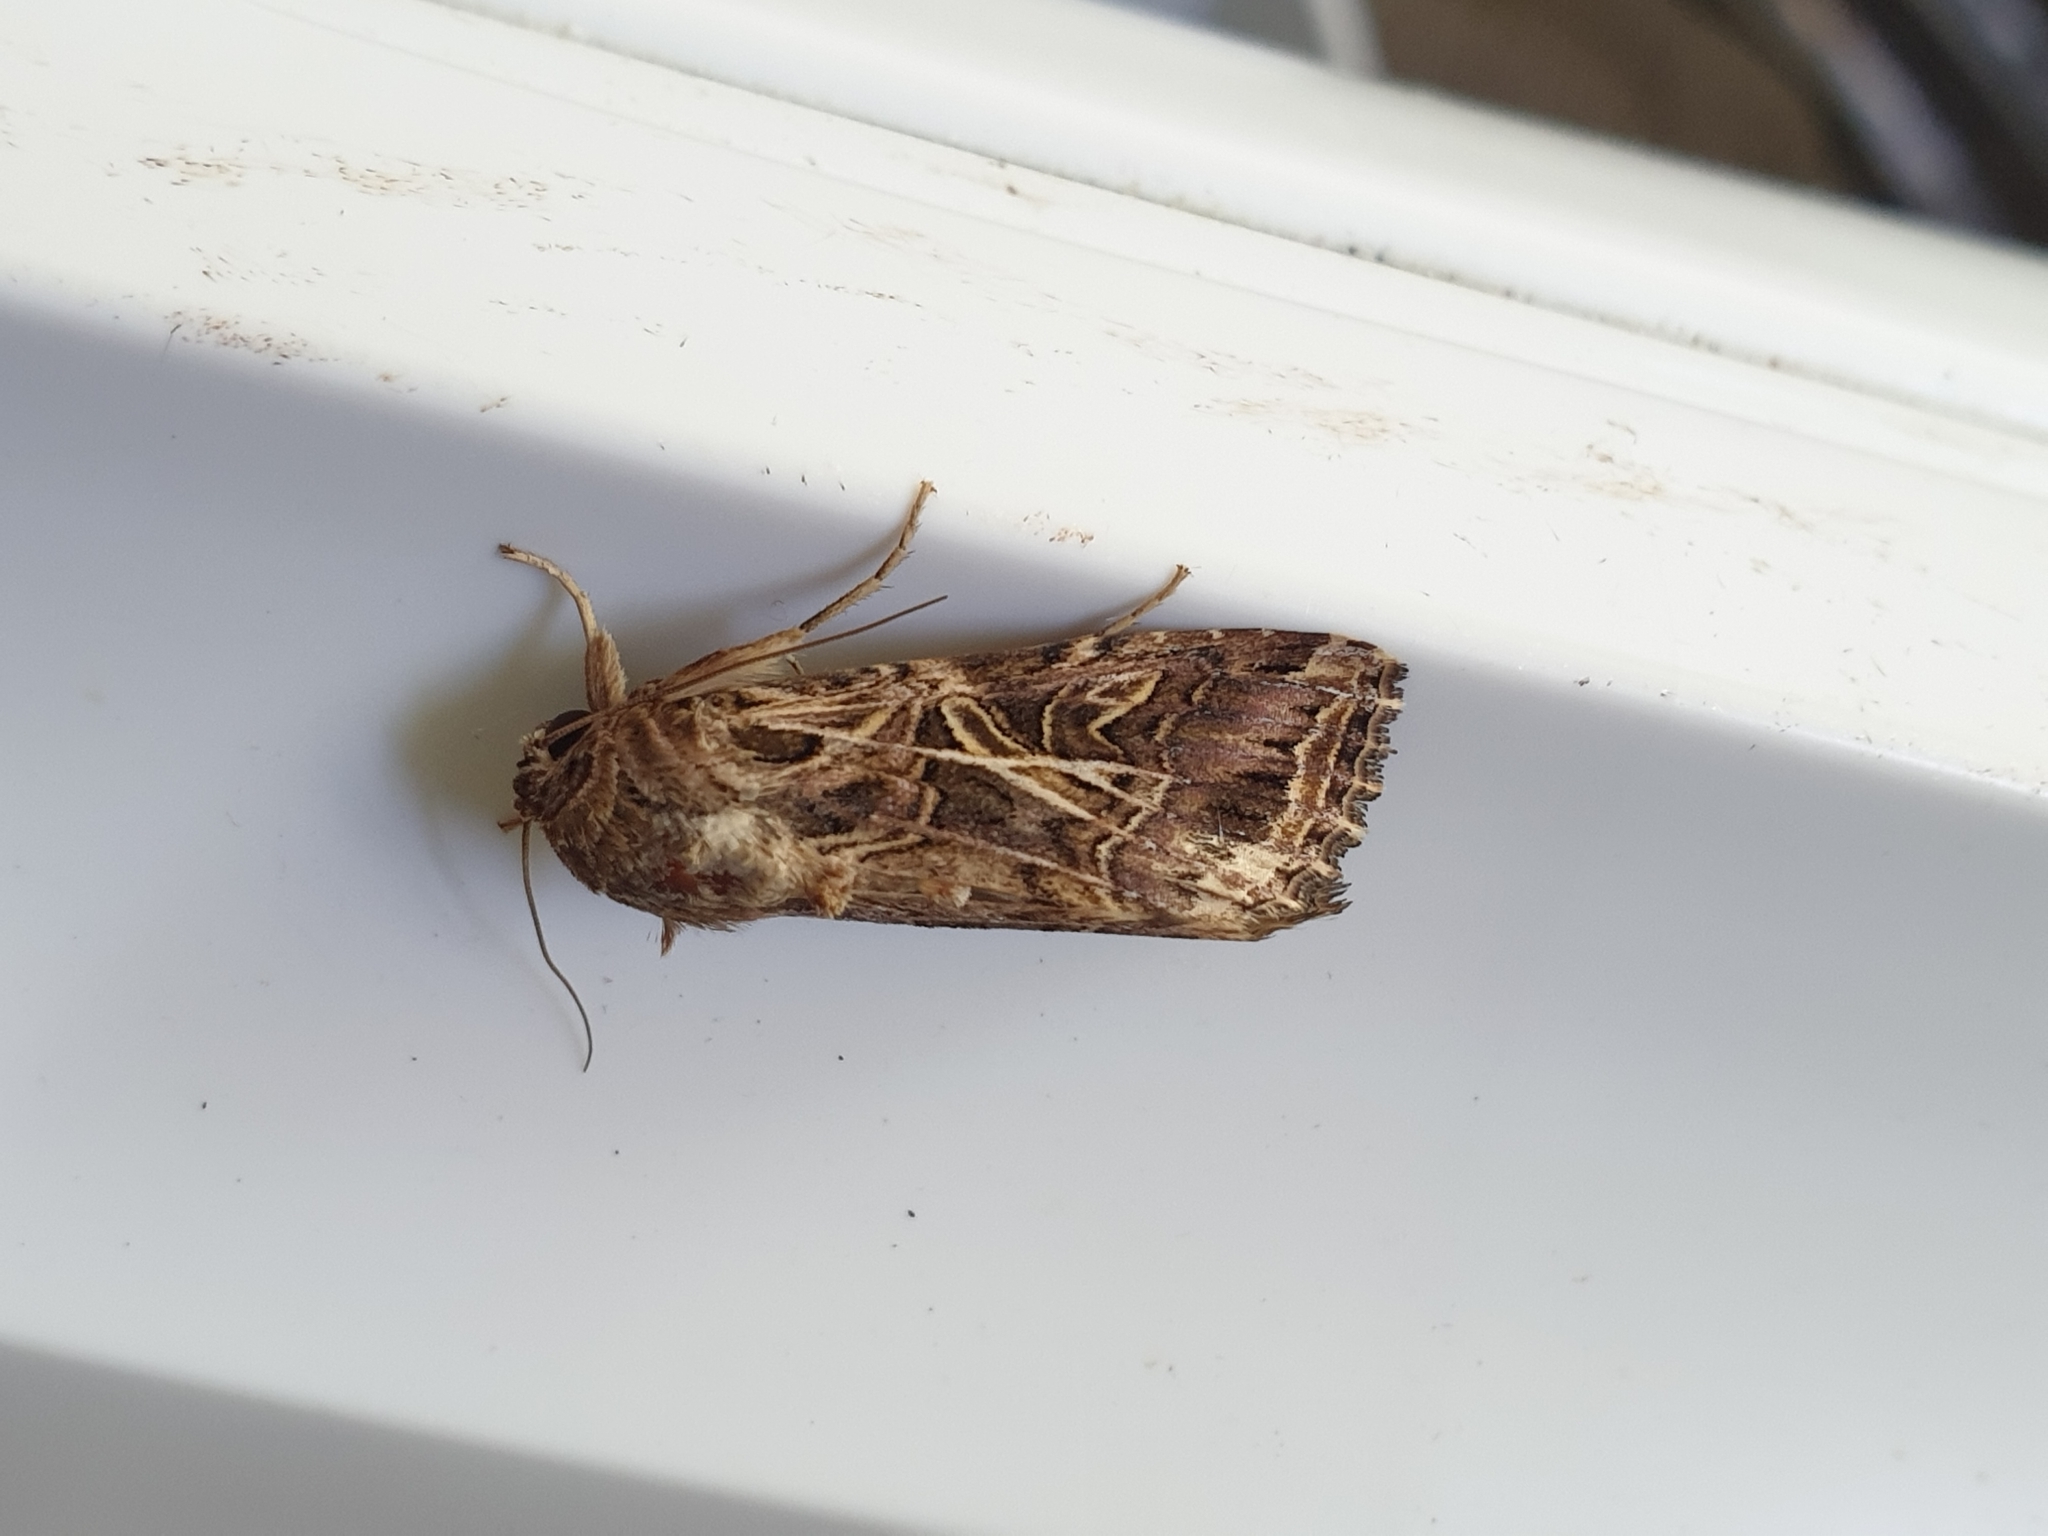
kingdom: Animalia
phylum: Arthropoda
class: Insecta
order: Lepidoptera
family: Noctuidae
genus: Spodoptera
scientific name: Spodoptera litura
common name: Asian cotton leafworm
